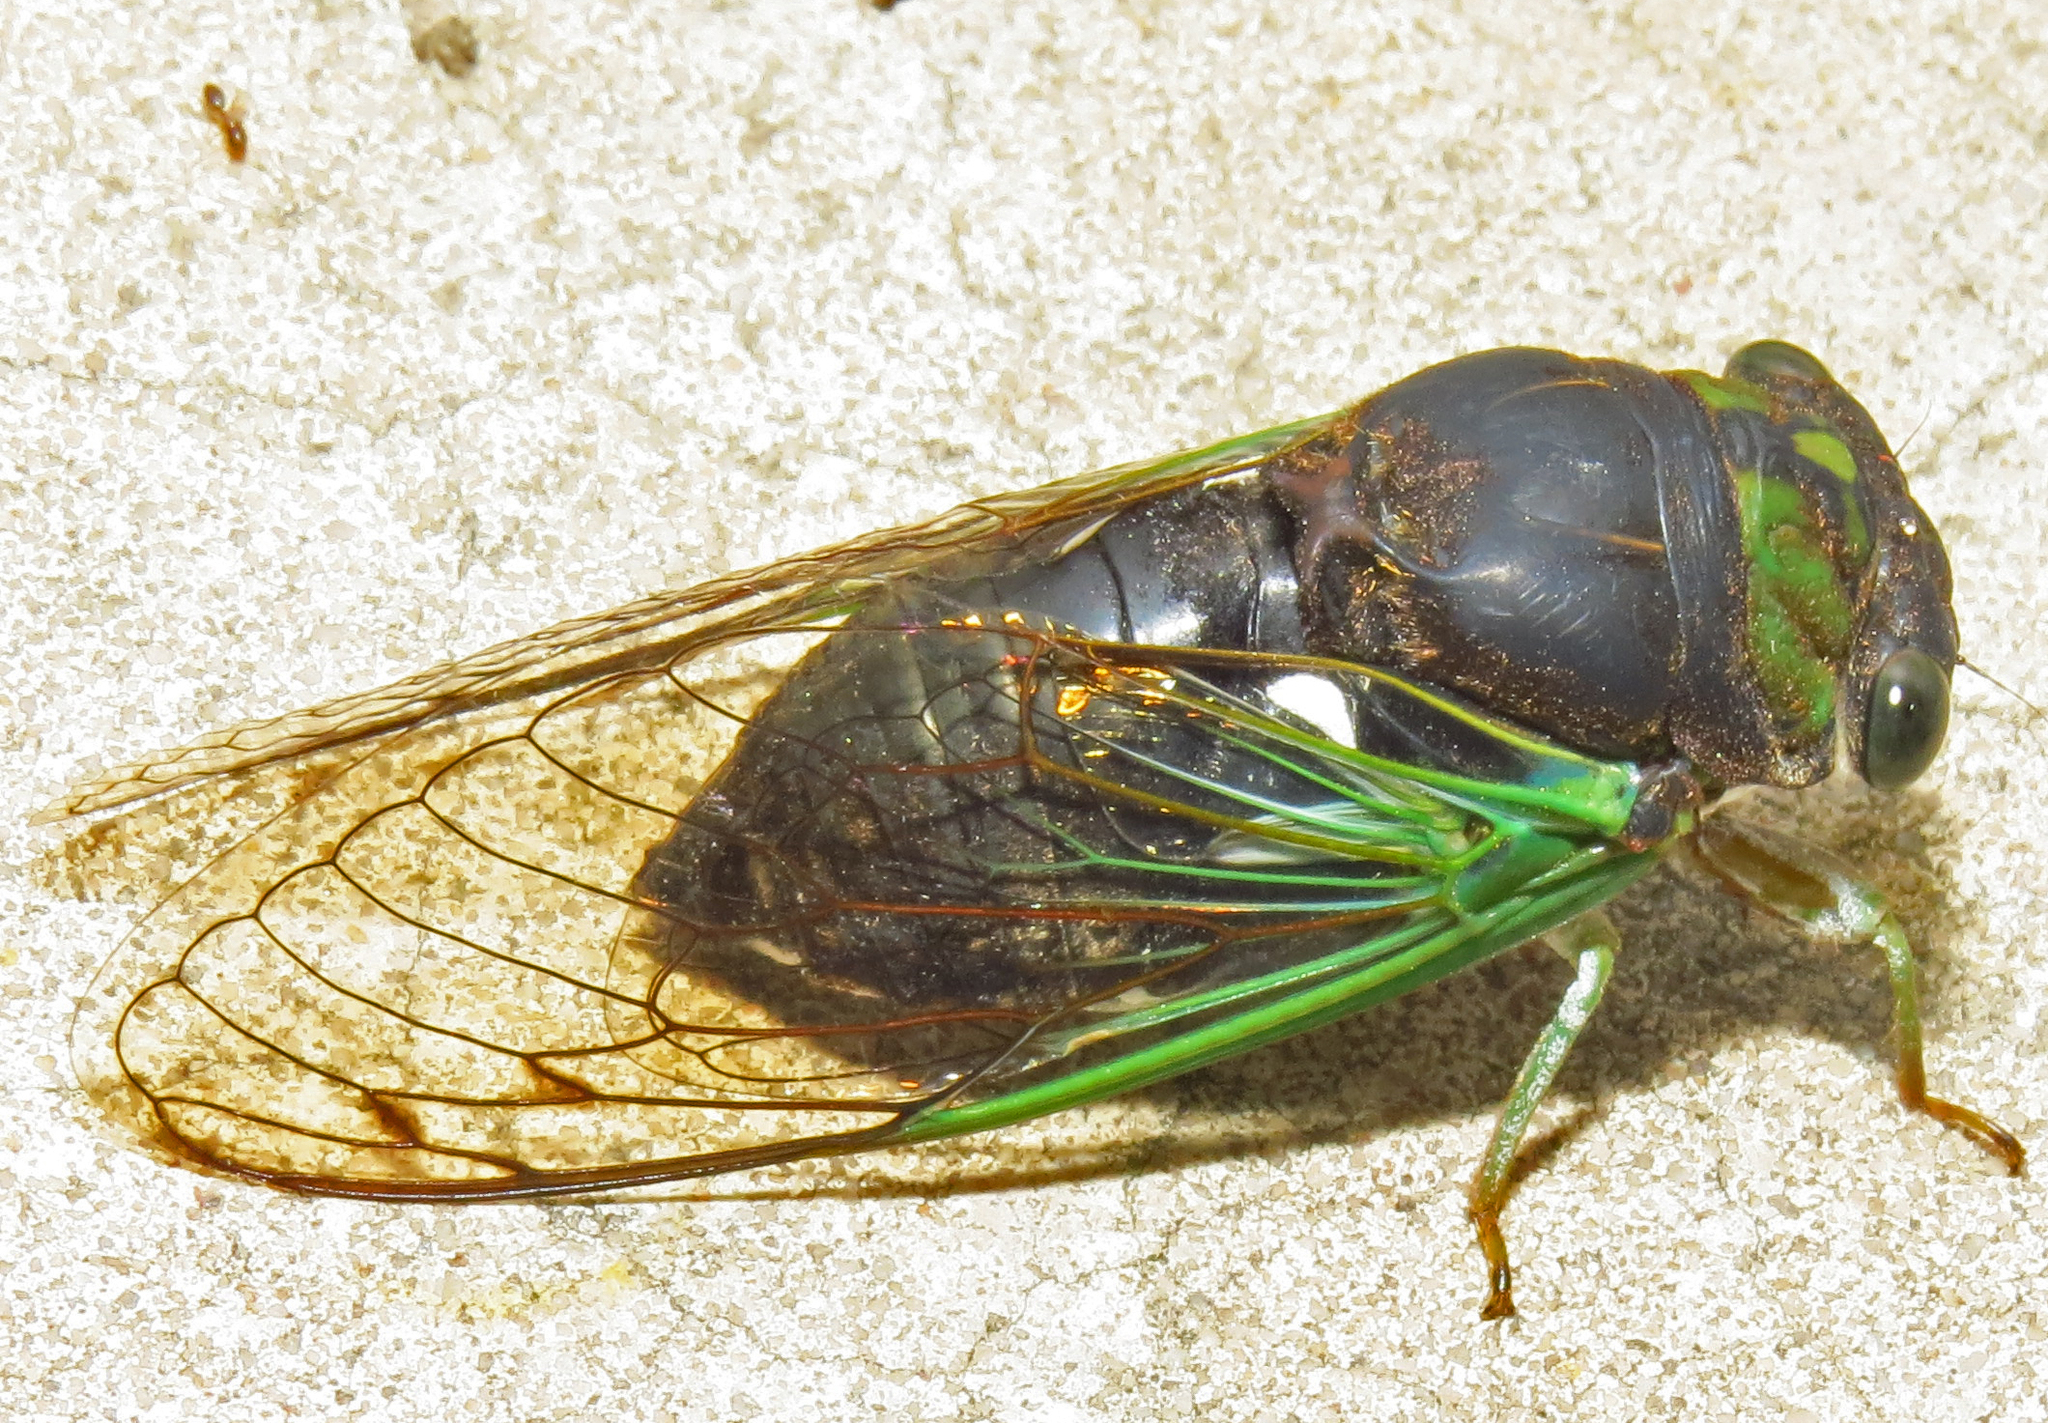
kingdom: Animalia
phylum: Arthropoda
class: Insecta
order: Hemiptera
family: Cicadidae
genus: Neotibicen
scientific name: Neotibicen tibicen
